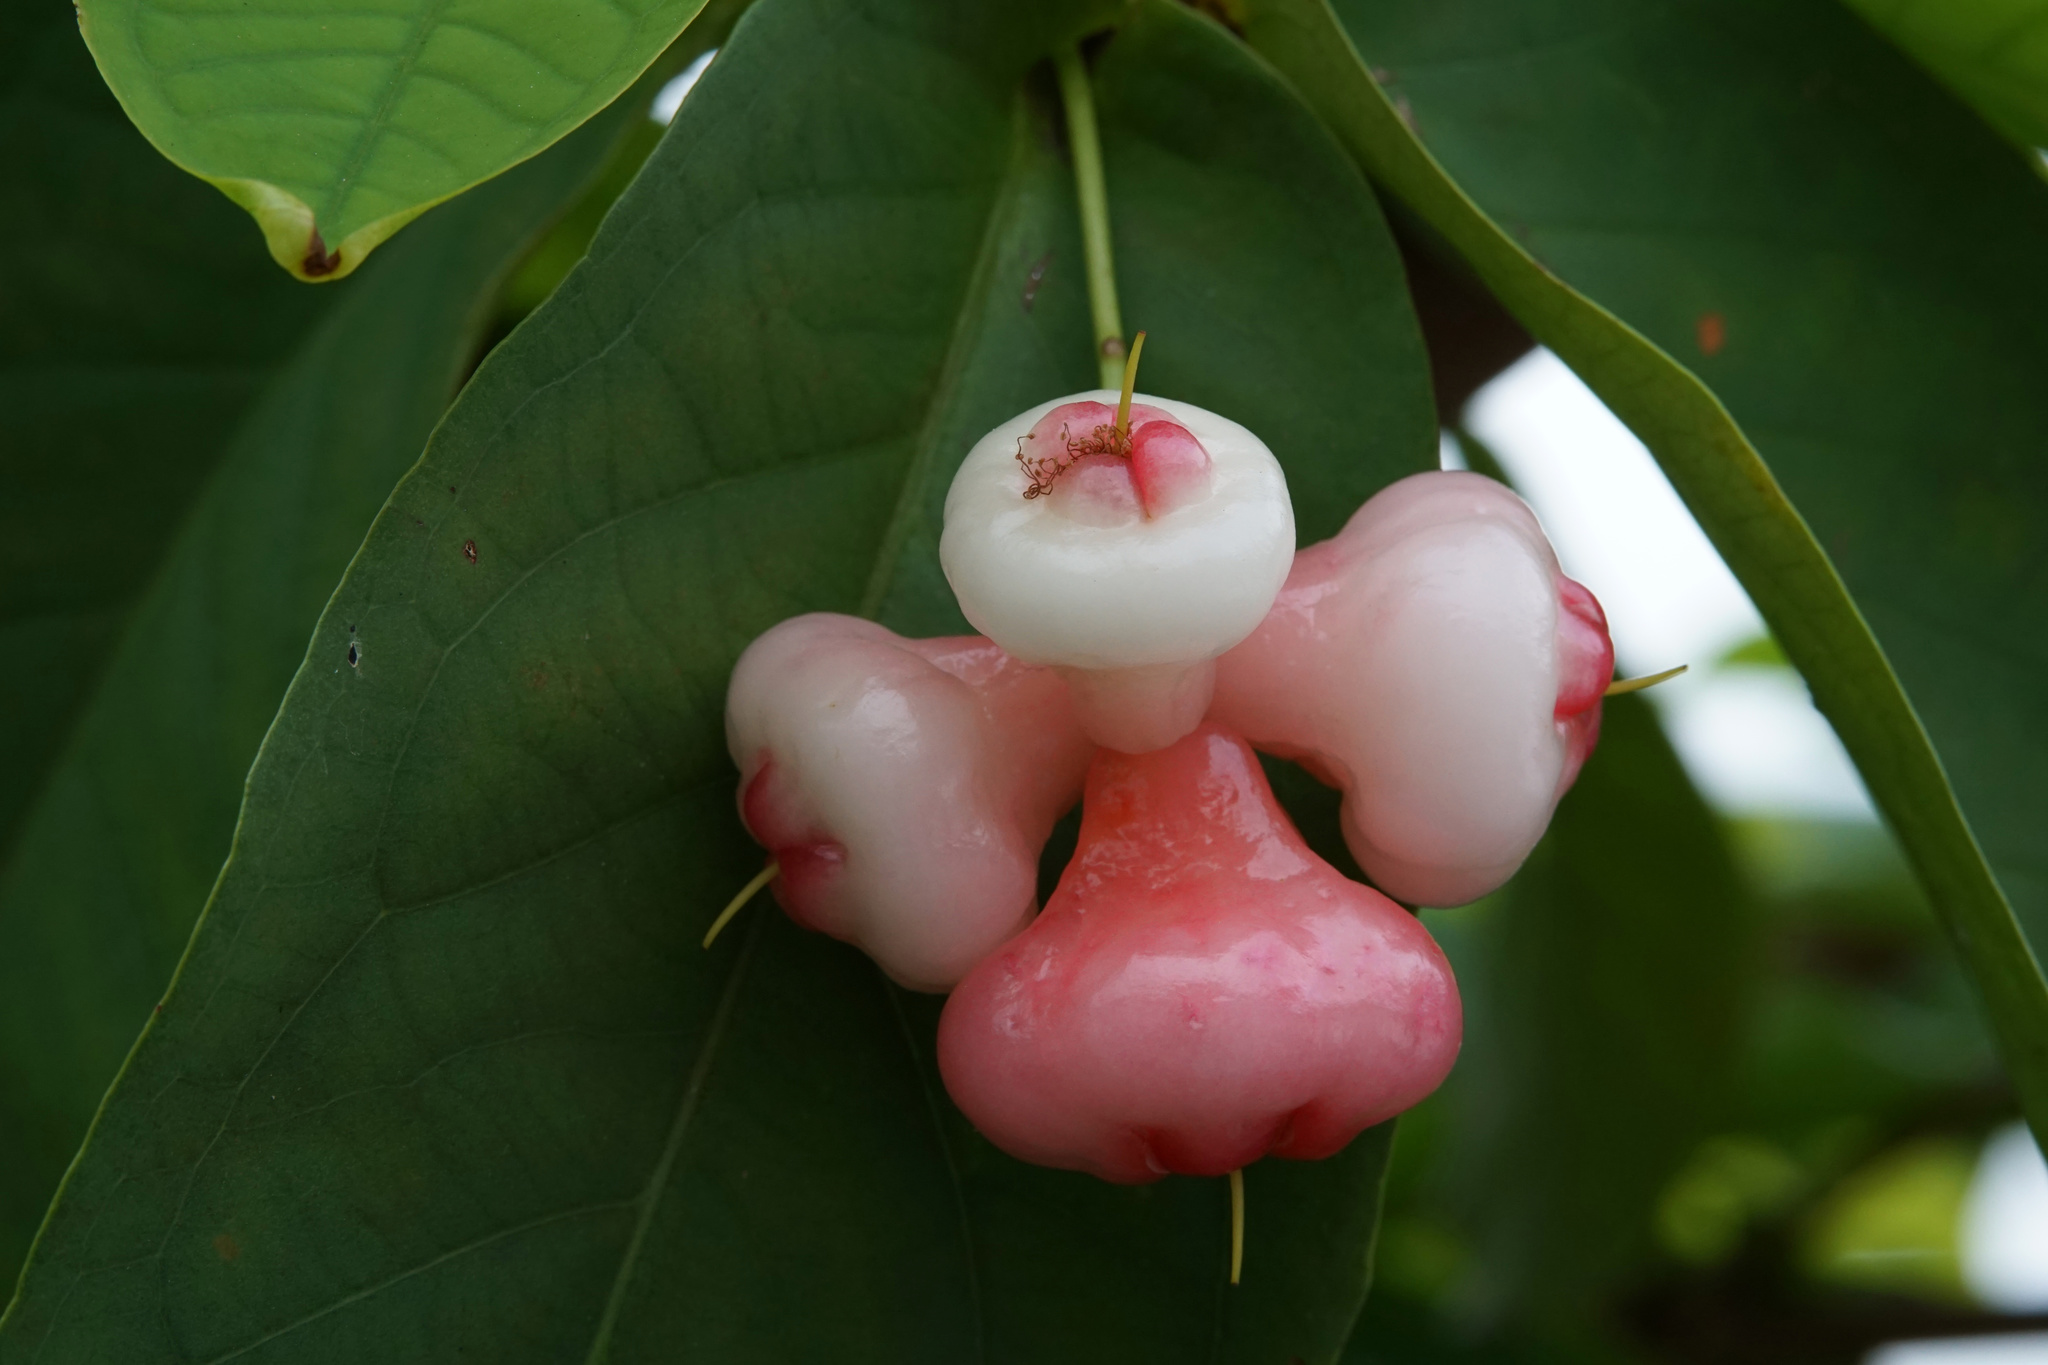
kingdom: Plantae
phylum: Tracheophyta
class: Magnoliopsida
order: Myrtales
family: Myrtaceae
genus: Syzygium
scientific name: Syzygium aqueum
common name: Water-apple
